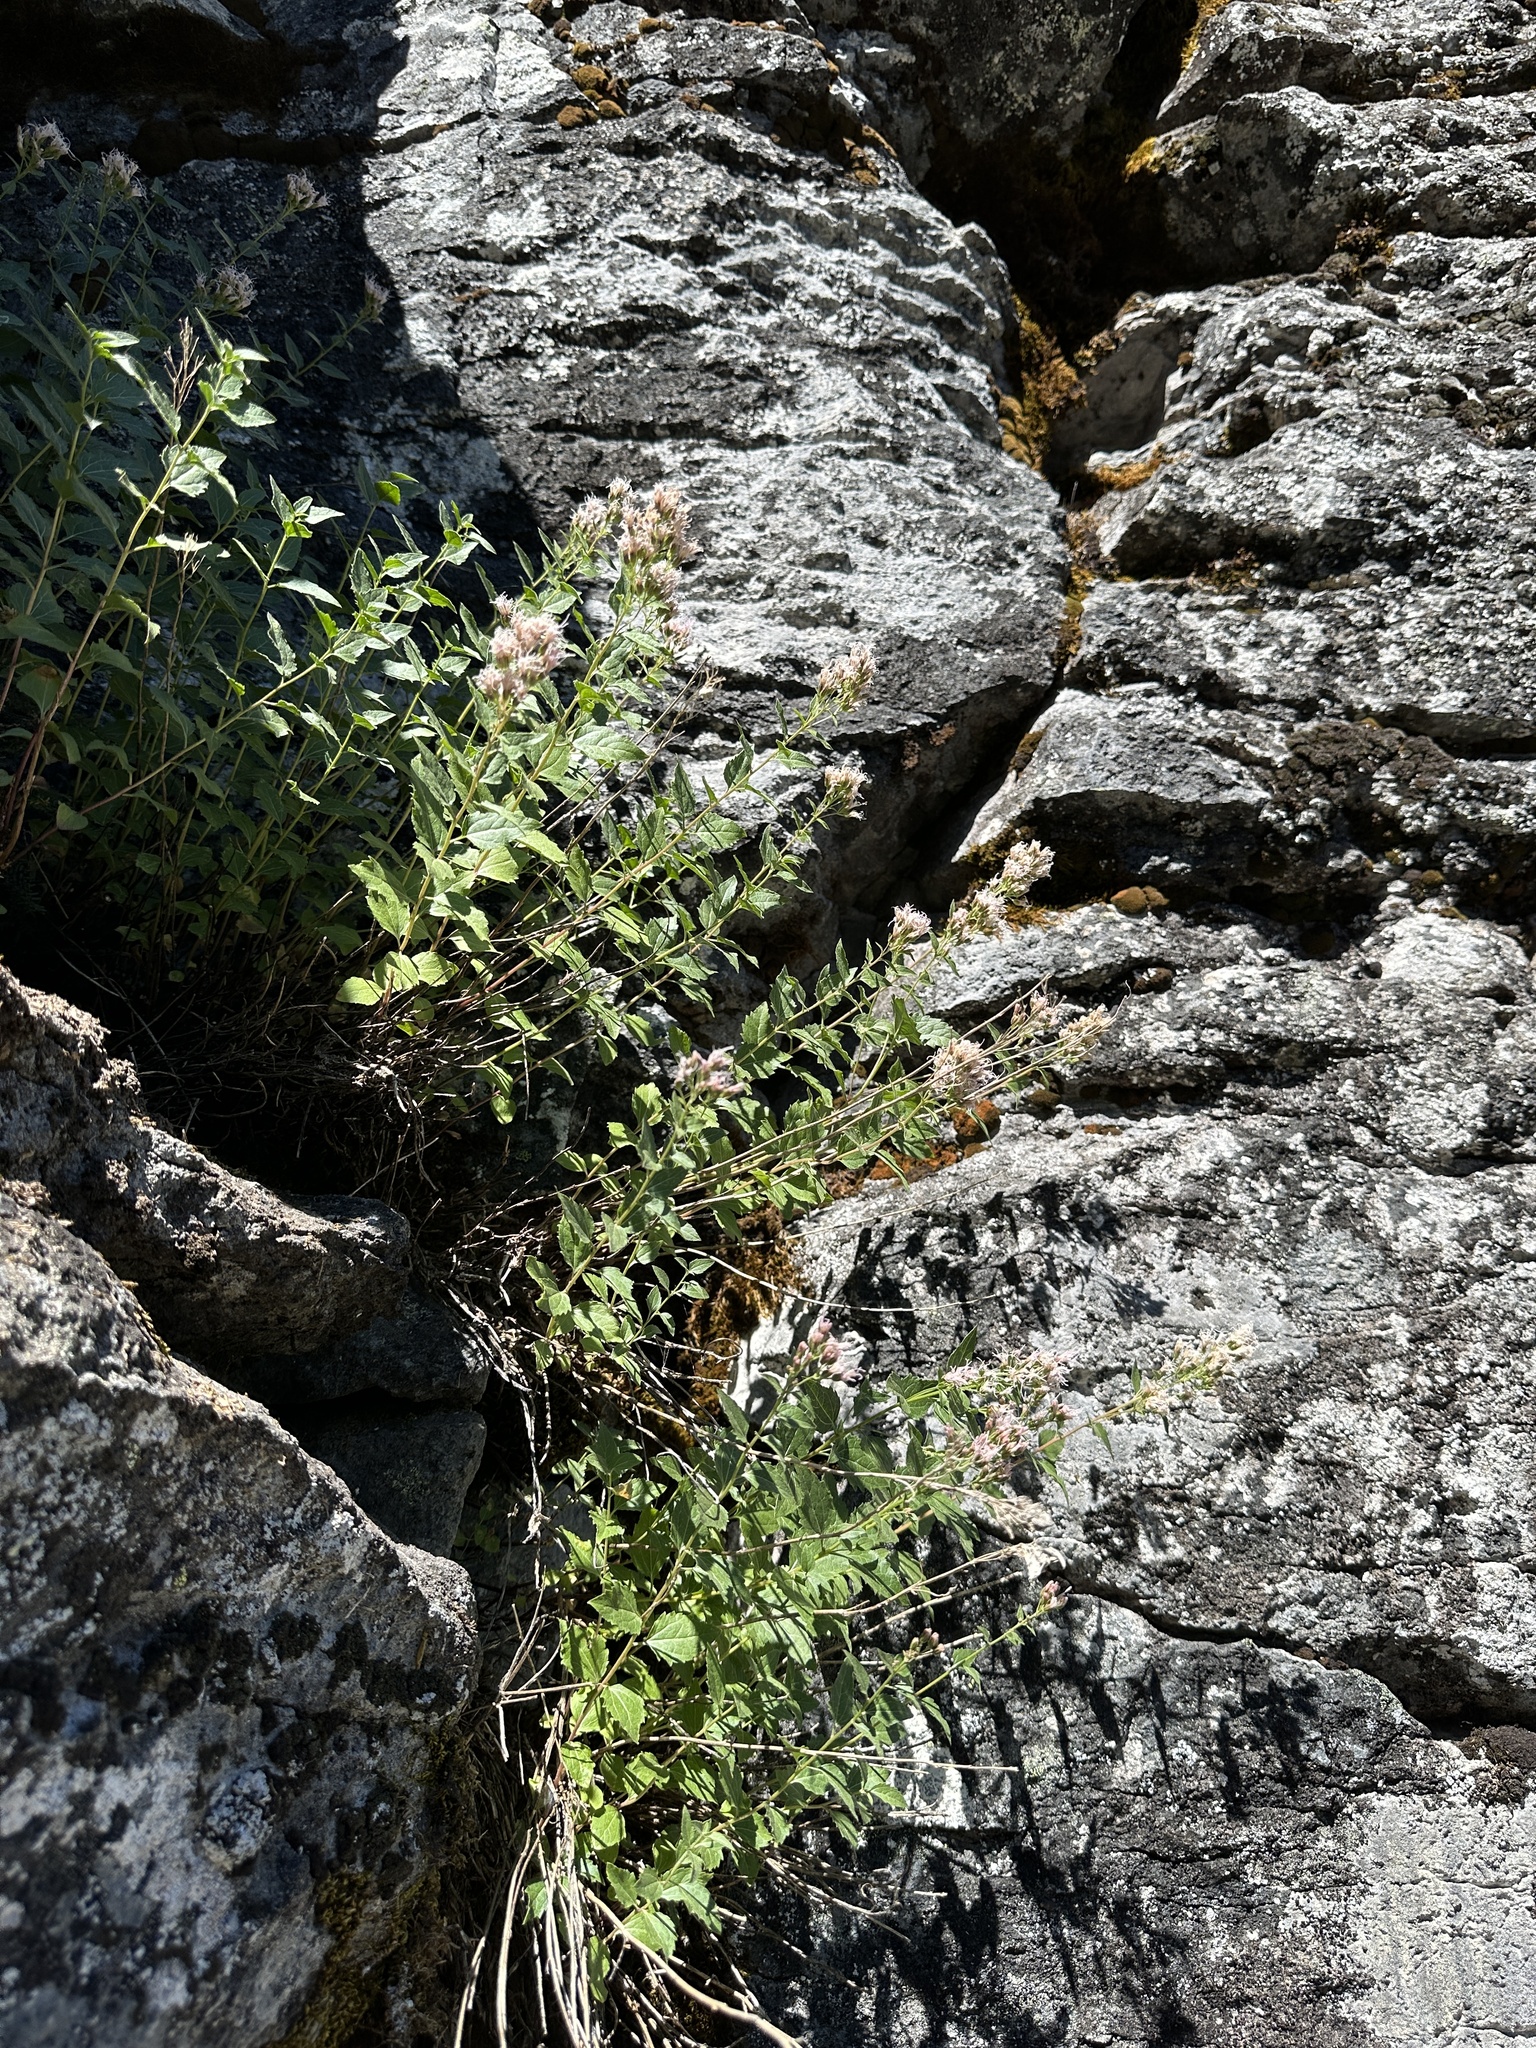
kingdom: Plantae
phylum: Tracheophyta
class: Magnoliopsida
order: Asterales
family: Asteraceae
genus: Ageratina
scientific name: Ageratina occidentalis
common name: Western snakeroot
